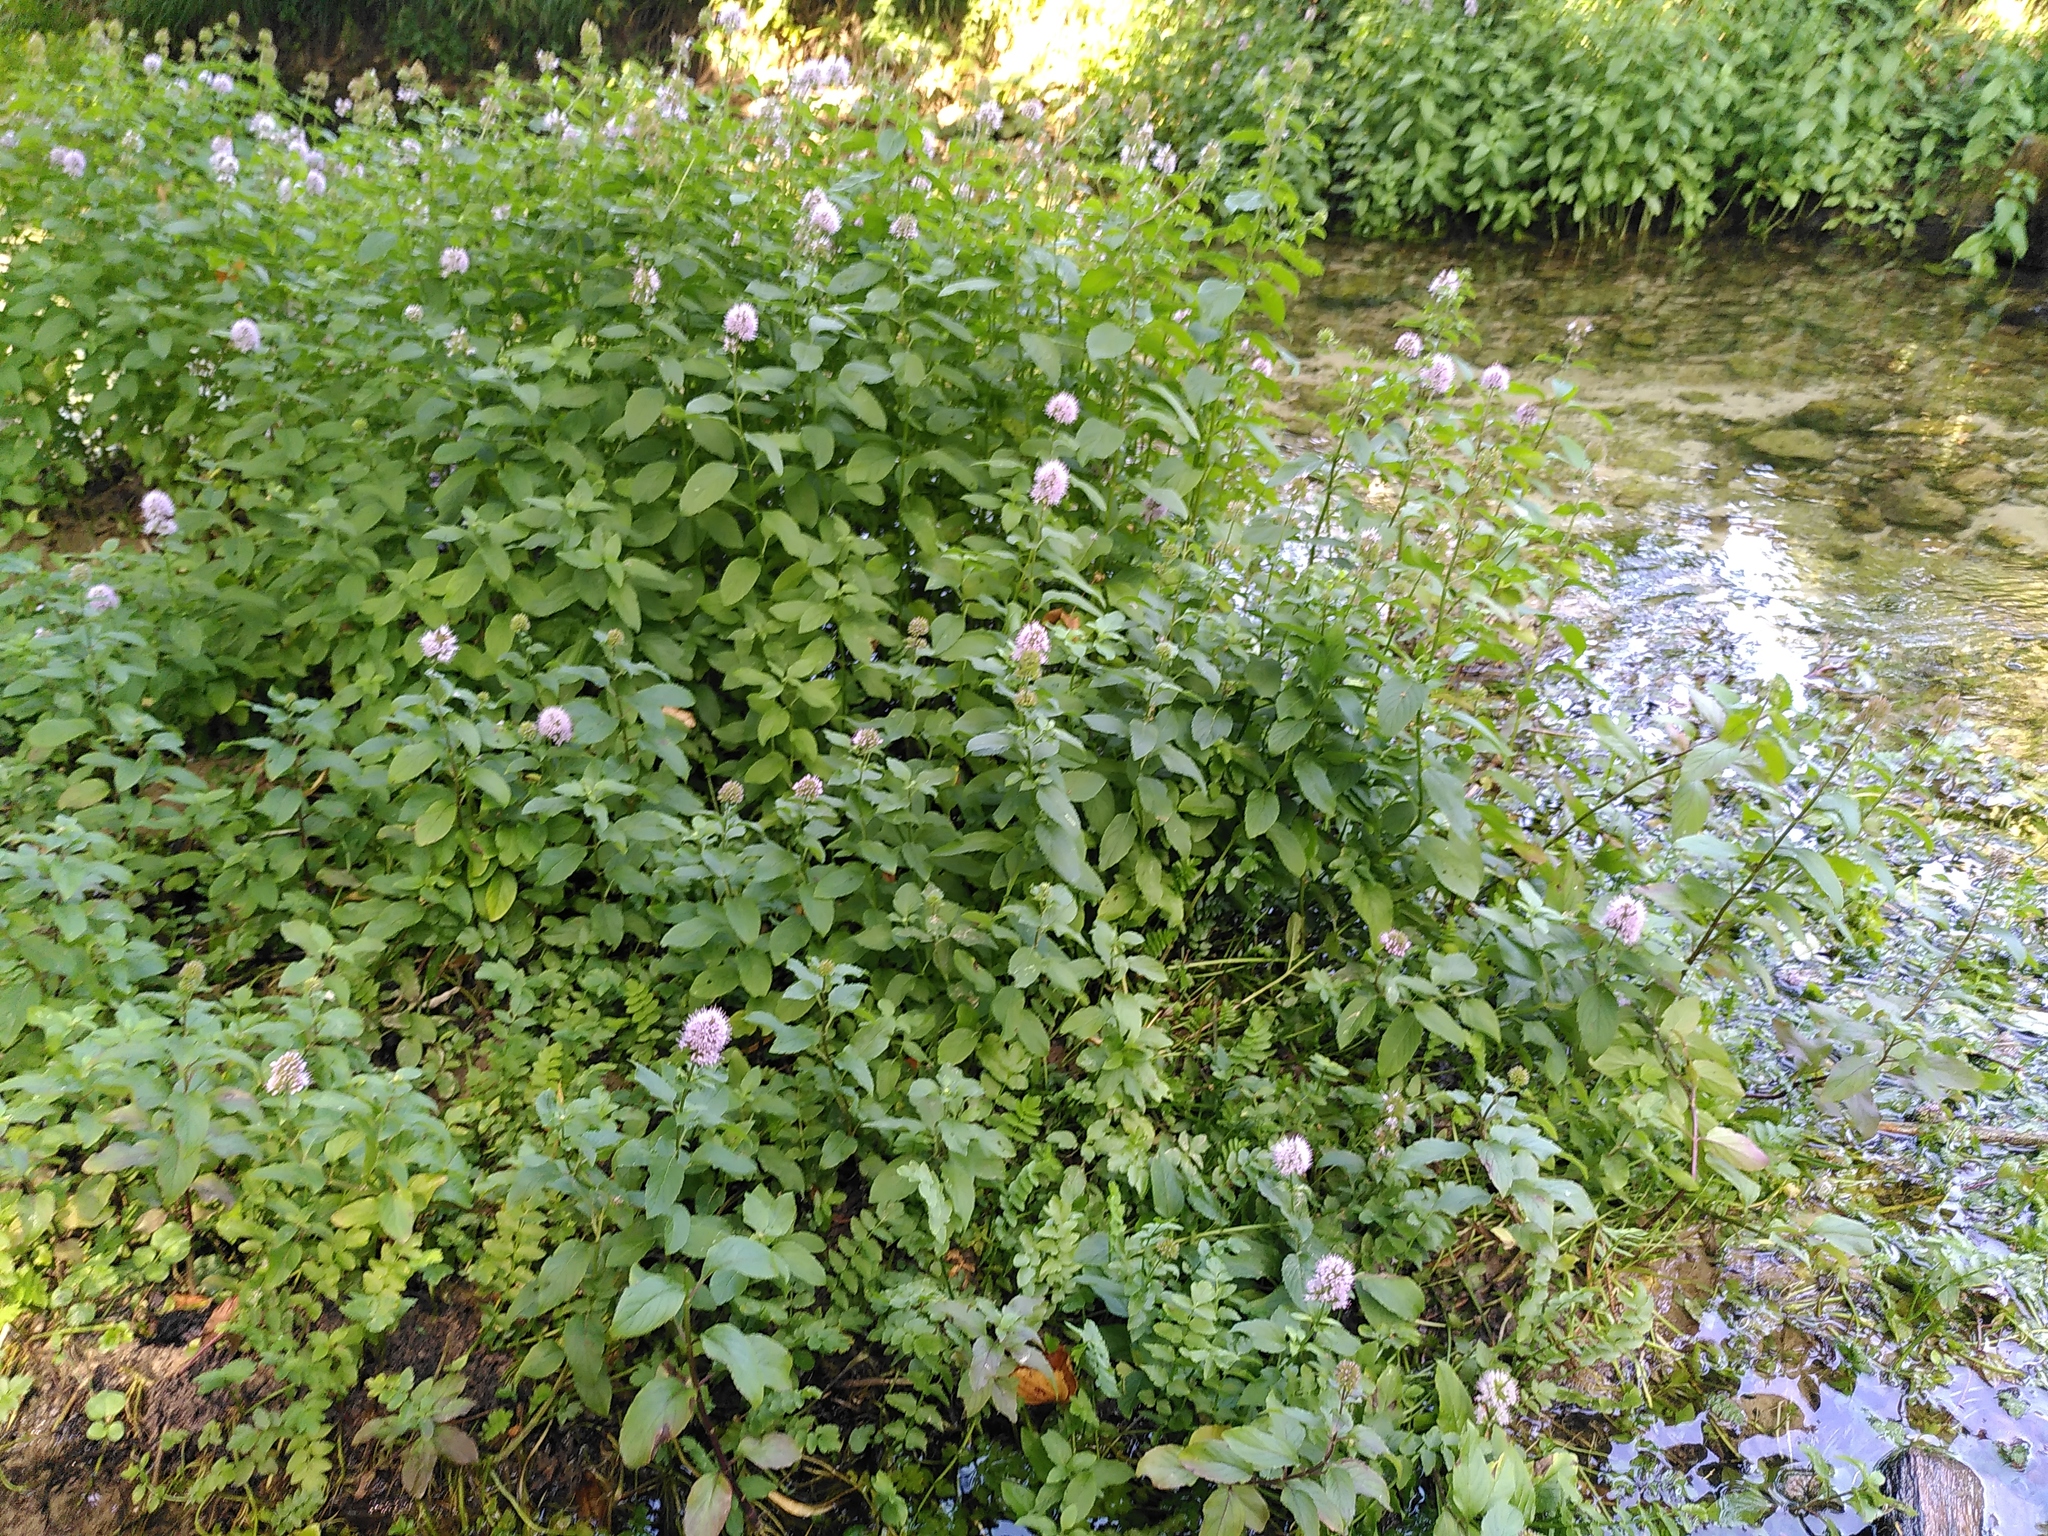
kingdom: Plantae
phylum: Tracheophyta
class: Magnoliopsida
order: Lamiales
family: Lamiaceae
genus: Mentha
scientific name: Mentha aquatica
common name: Water mint
